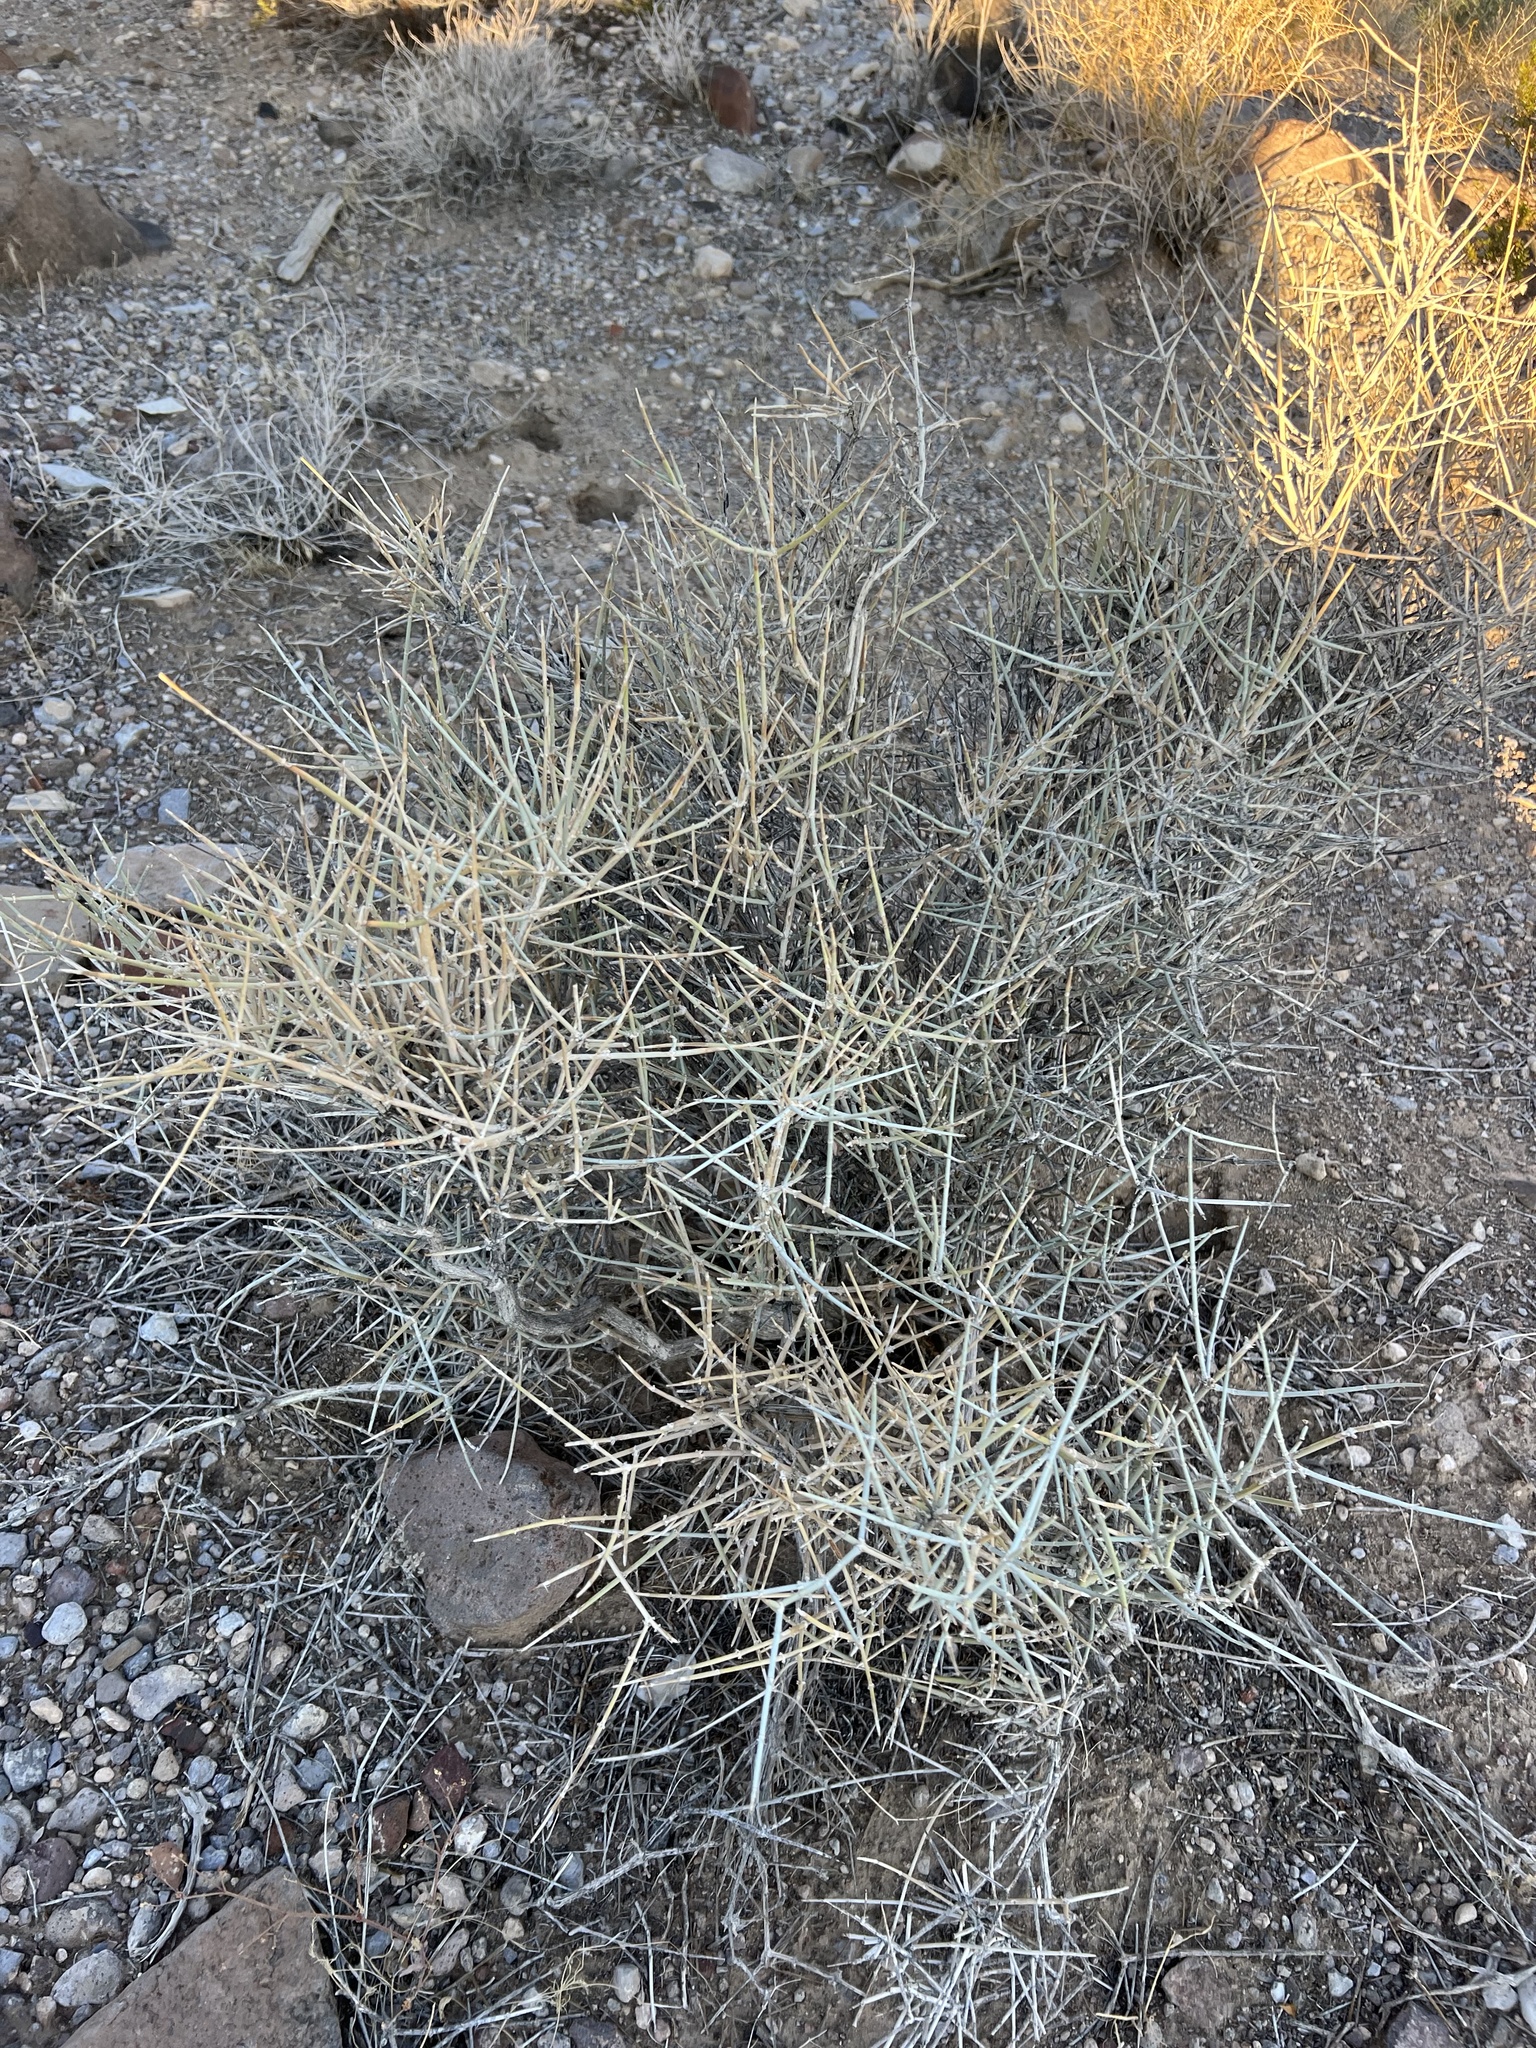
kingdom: Plantae
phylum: Tracheophyta
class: Gnetopsida
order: Ephedrales
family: Ephedraceae
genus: Ephedra
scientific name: Ephedra nevadensis
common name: Gray ephedra
